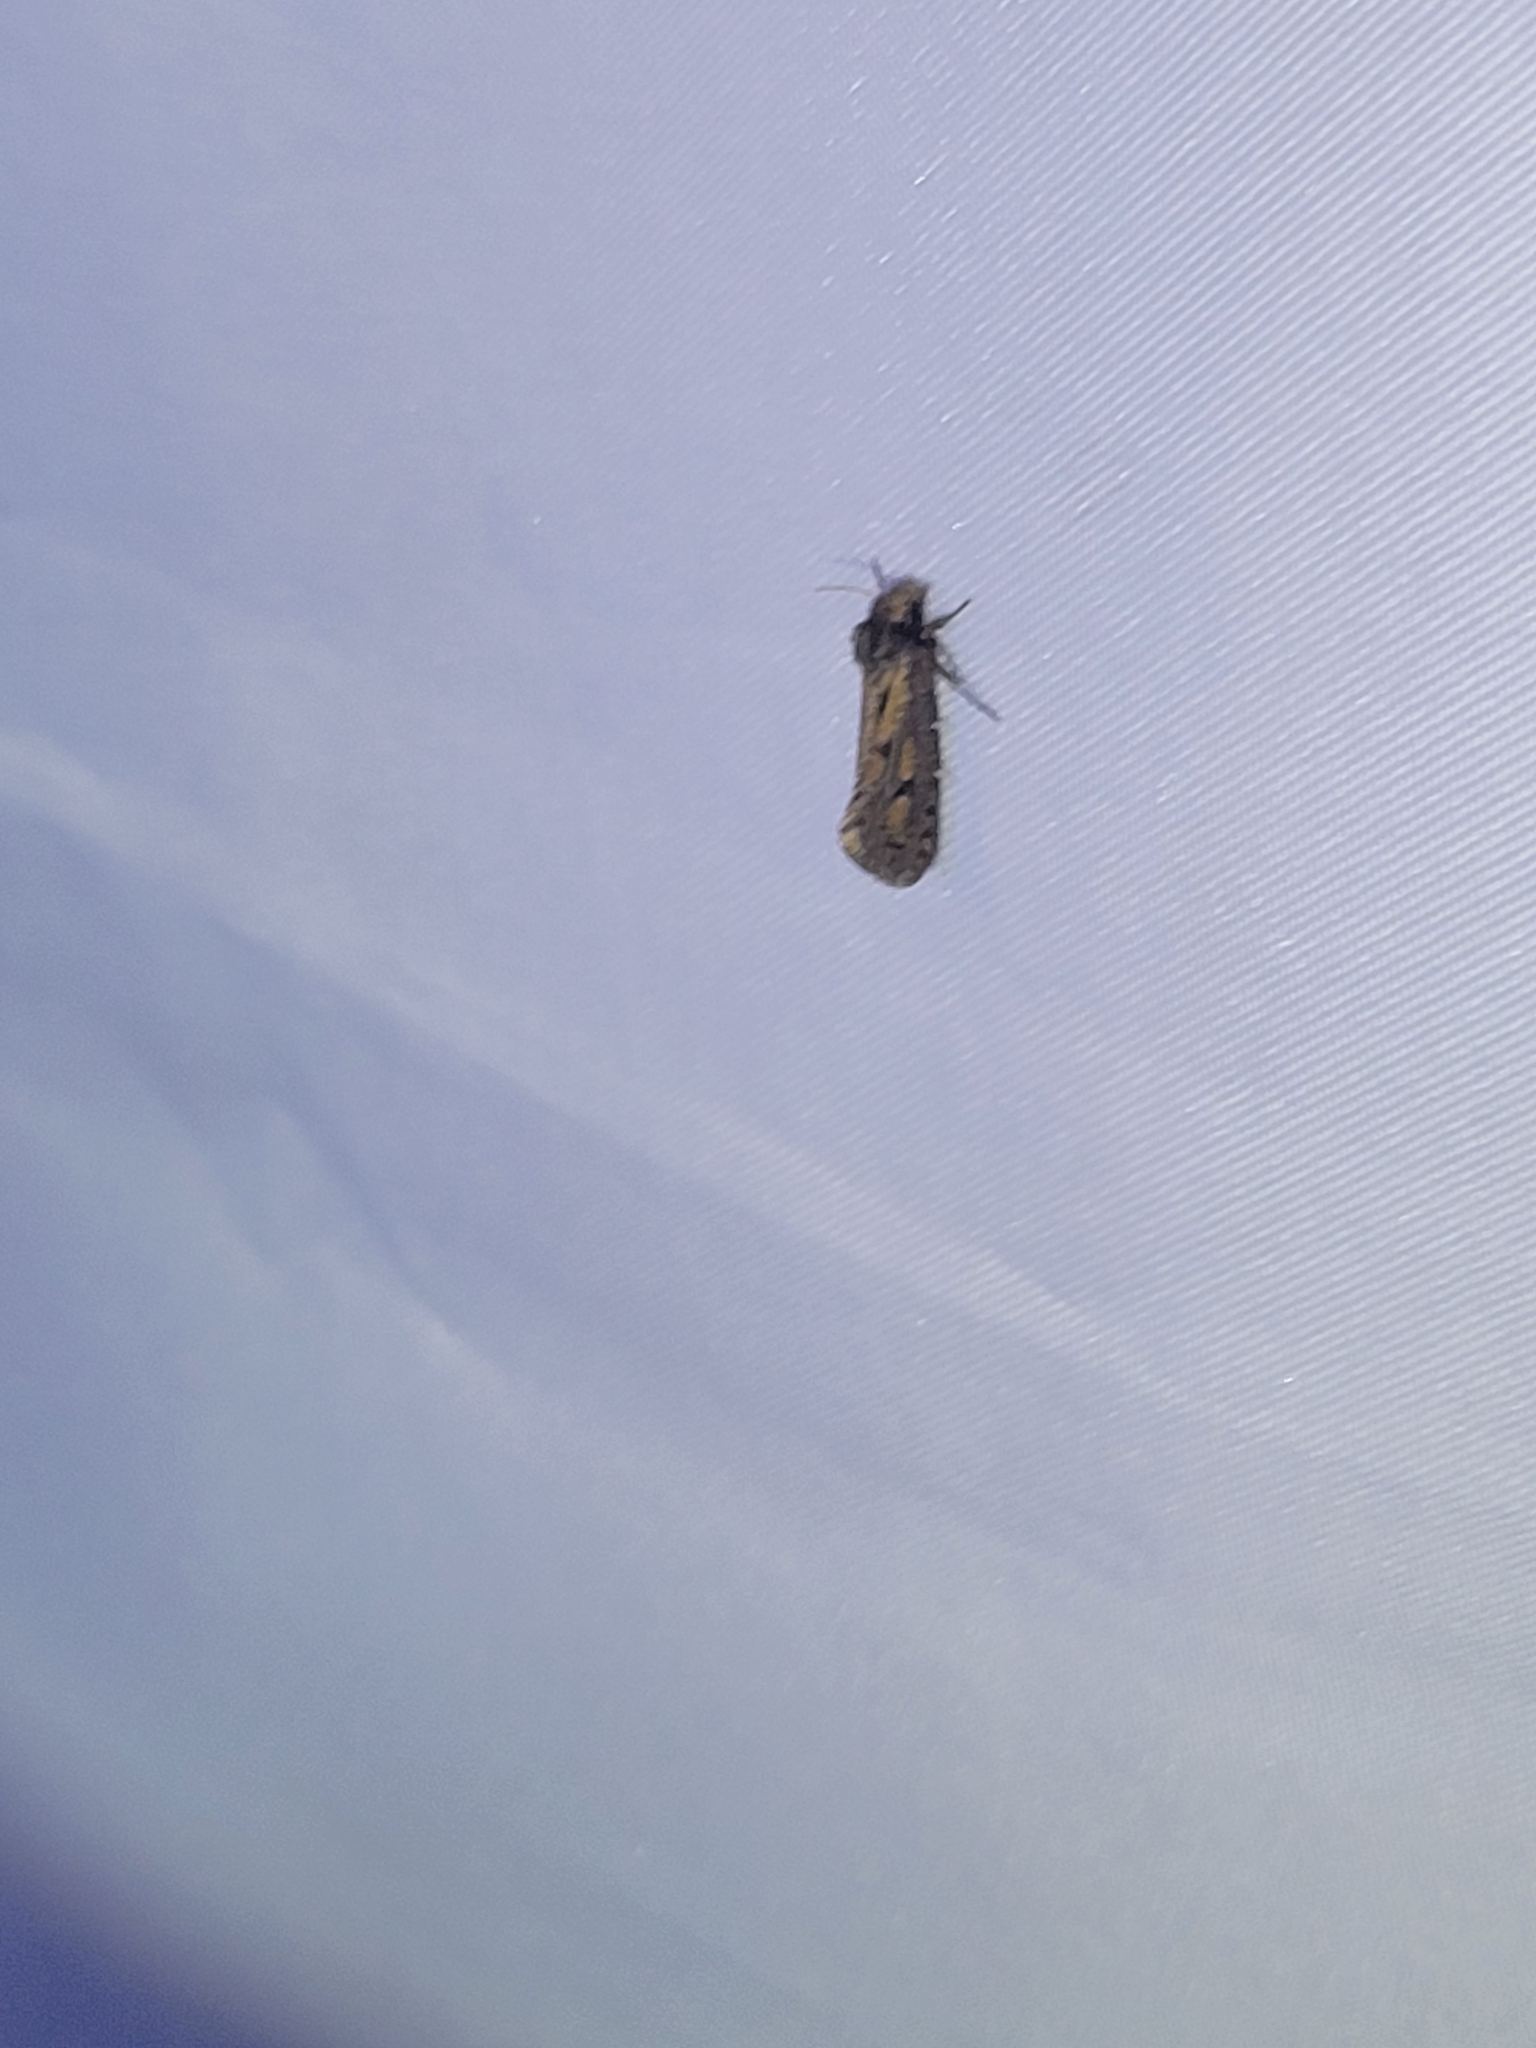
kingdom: Animalia
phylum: Arthropoda
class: Insecta
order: Lepidoptera
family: Tineidae
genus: Acrolophus
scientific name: Acrolophus popeanella
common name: Clemens' grass tubeworm moth
